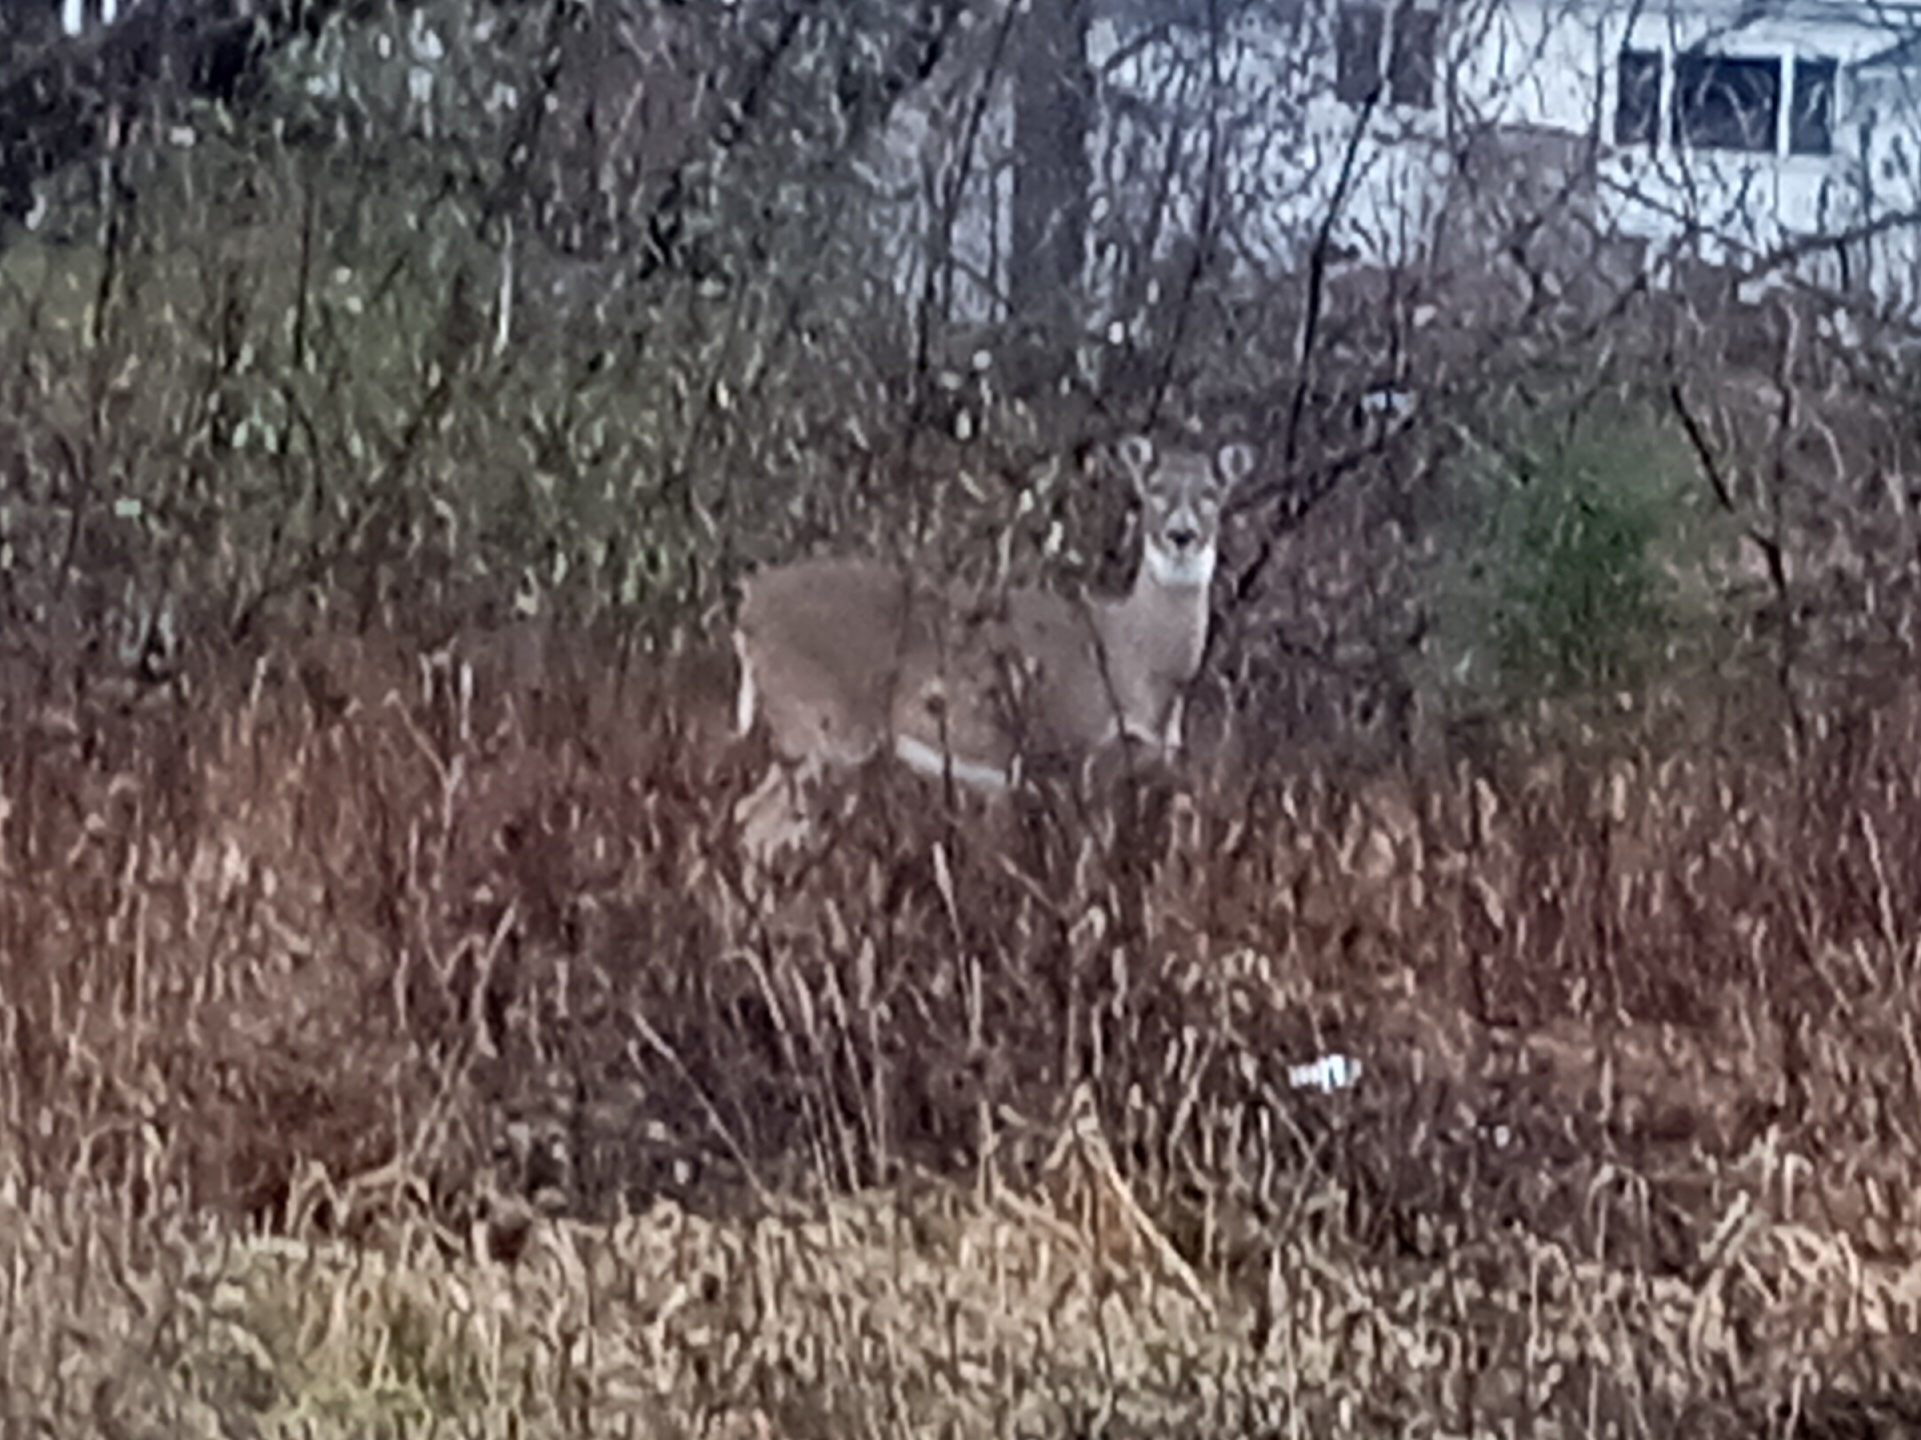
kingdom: Animalia
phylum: Chordata
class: Mammalia
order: Artiodactyla
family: Cervidae
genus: Odocoileus
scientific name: Odocoileus virginianus
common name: White-tailed deer
